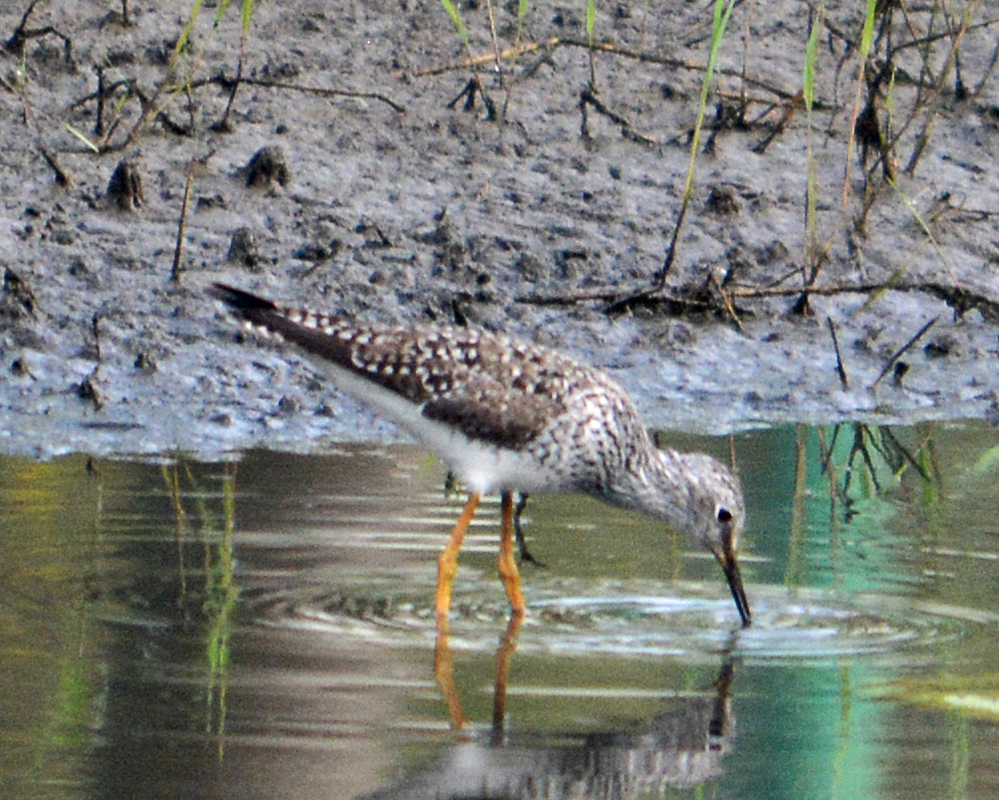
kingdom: Animalia
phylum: Chordata
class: Aves
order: Charadriiformes
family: Scolopacidae
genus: Tringa
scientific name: Tringa flavipes
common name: Lesser yellowlegs
